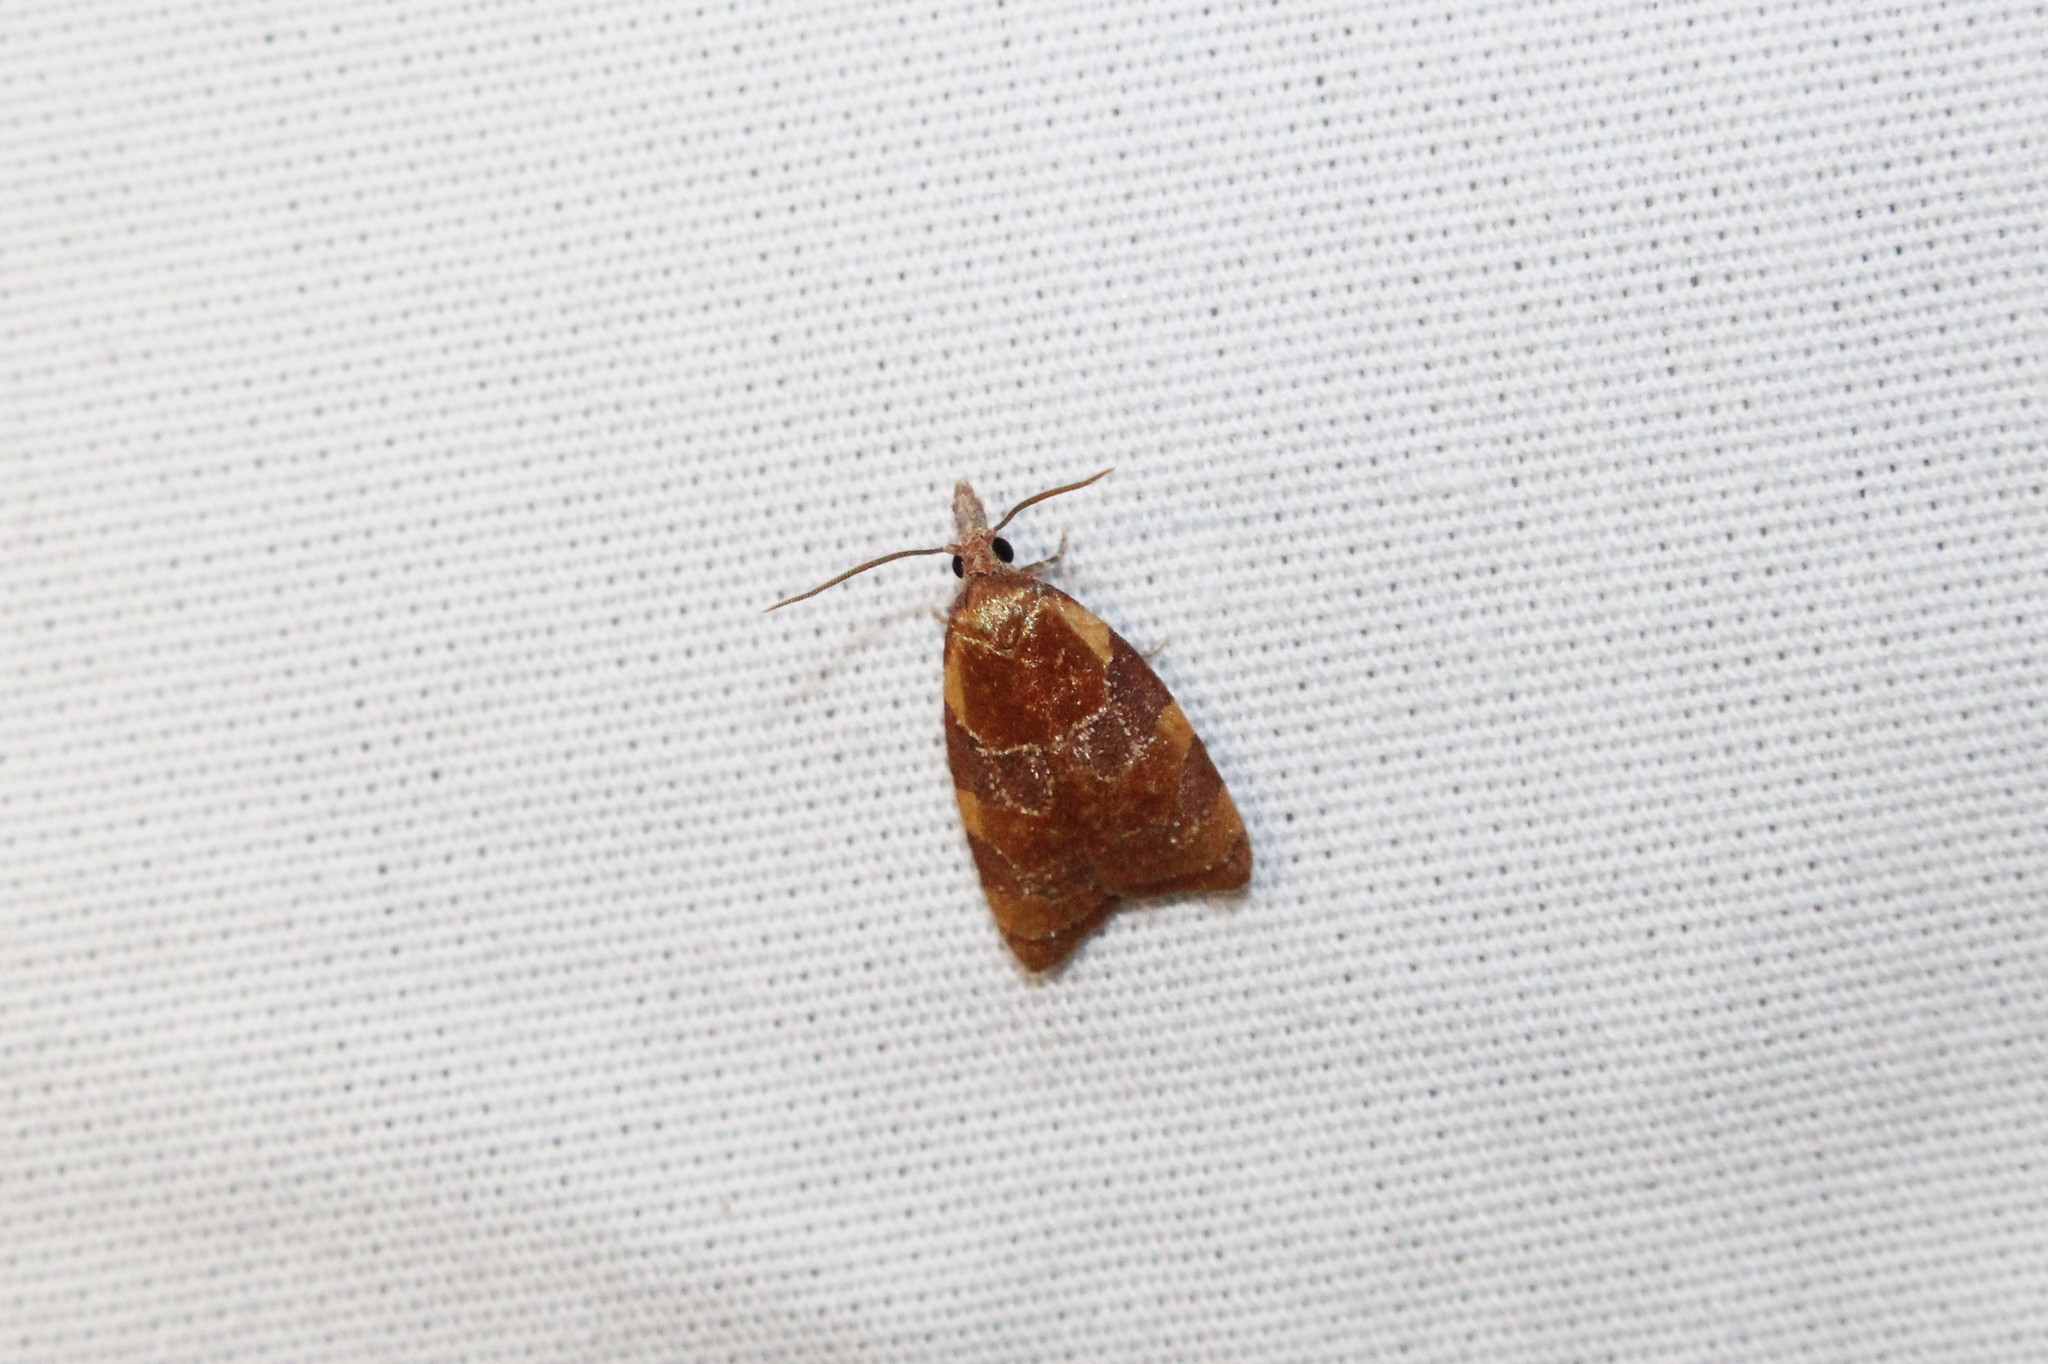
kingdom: Animalia
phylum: Arthropoda
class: Insecta
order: Lepidoptera
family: Tortricidae
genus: Cenopis
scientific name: Cenopis diluticostana
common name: Spring dead-leaf roller moth
